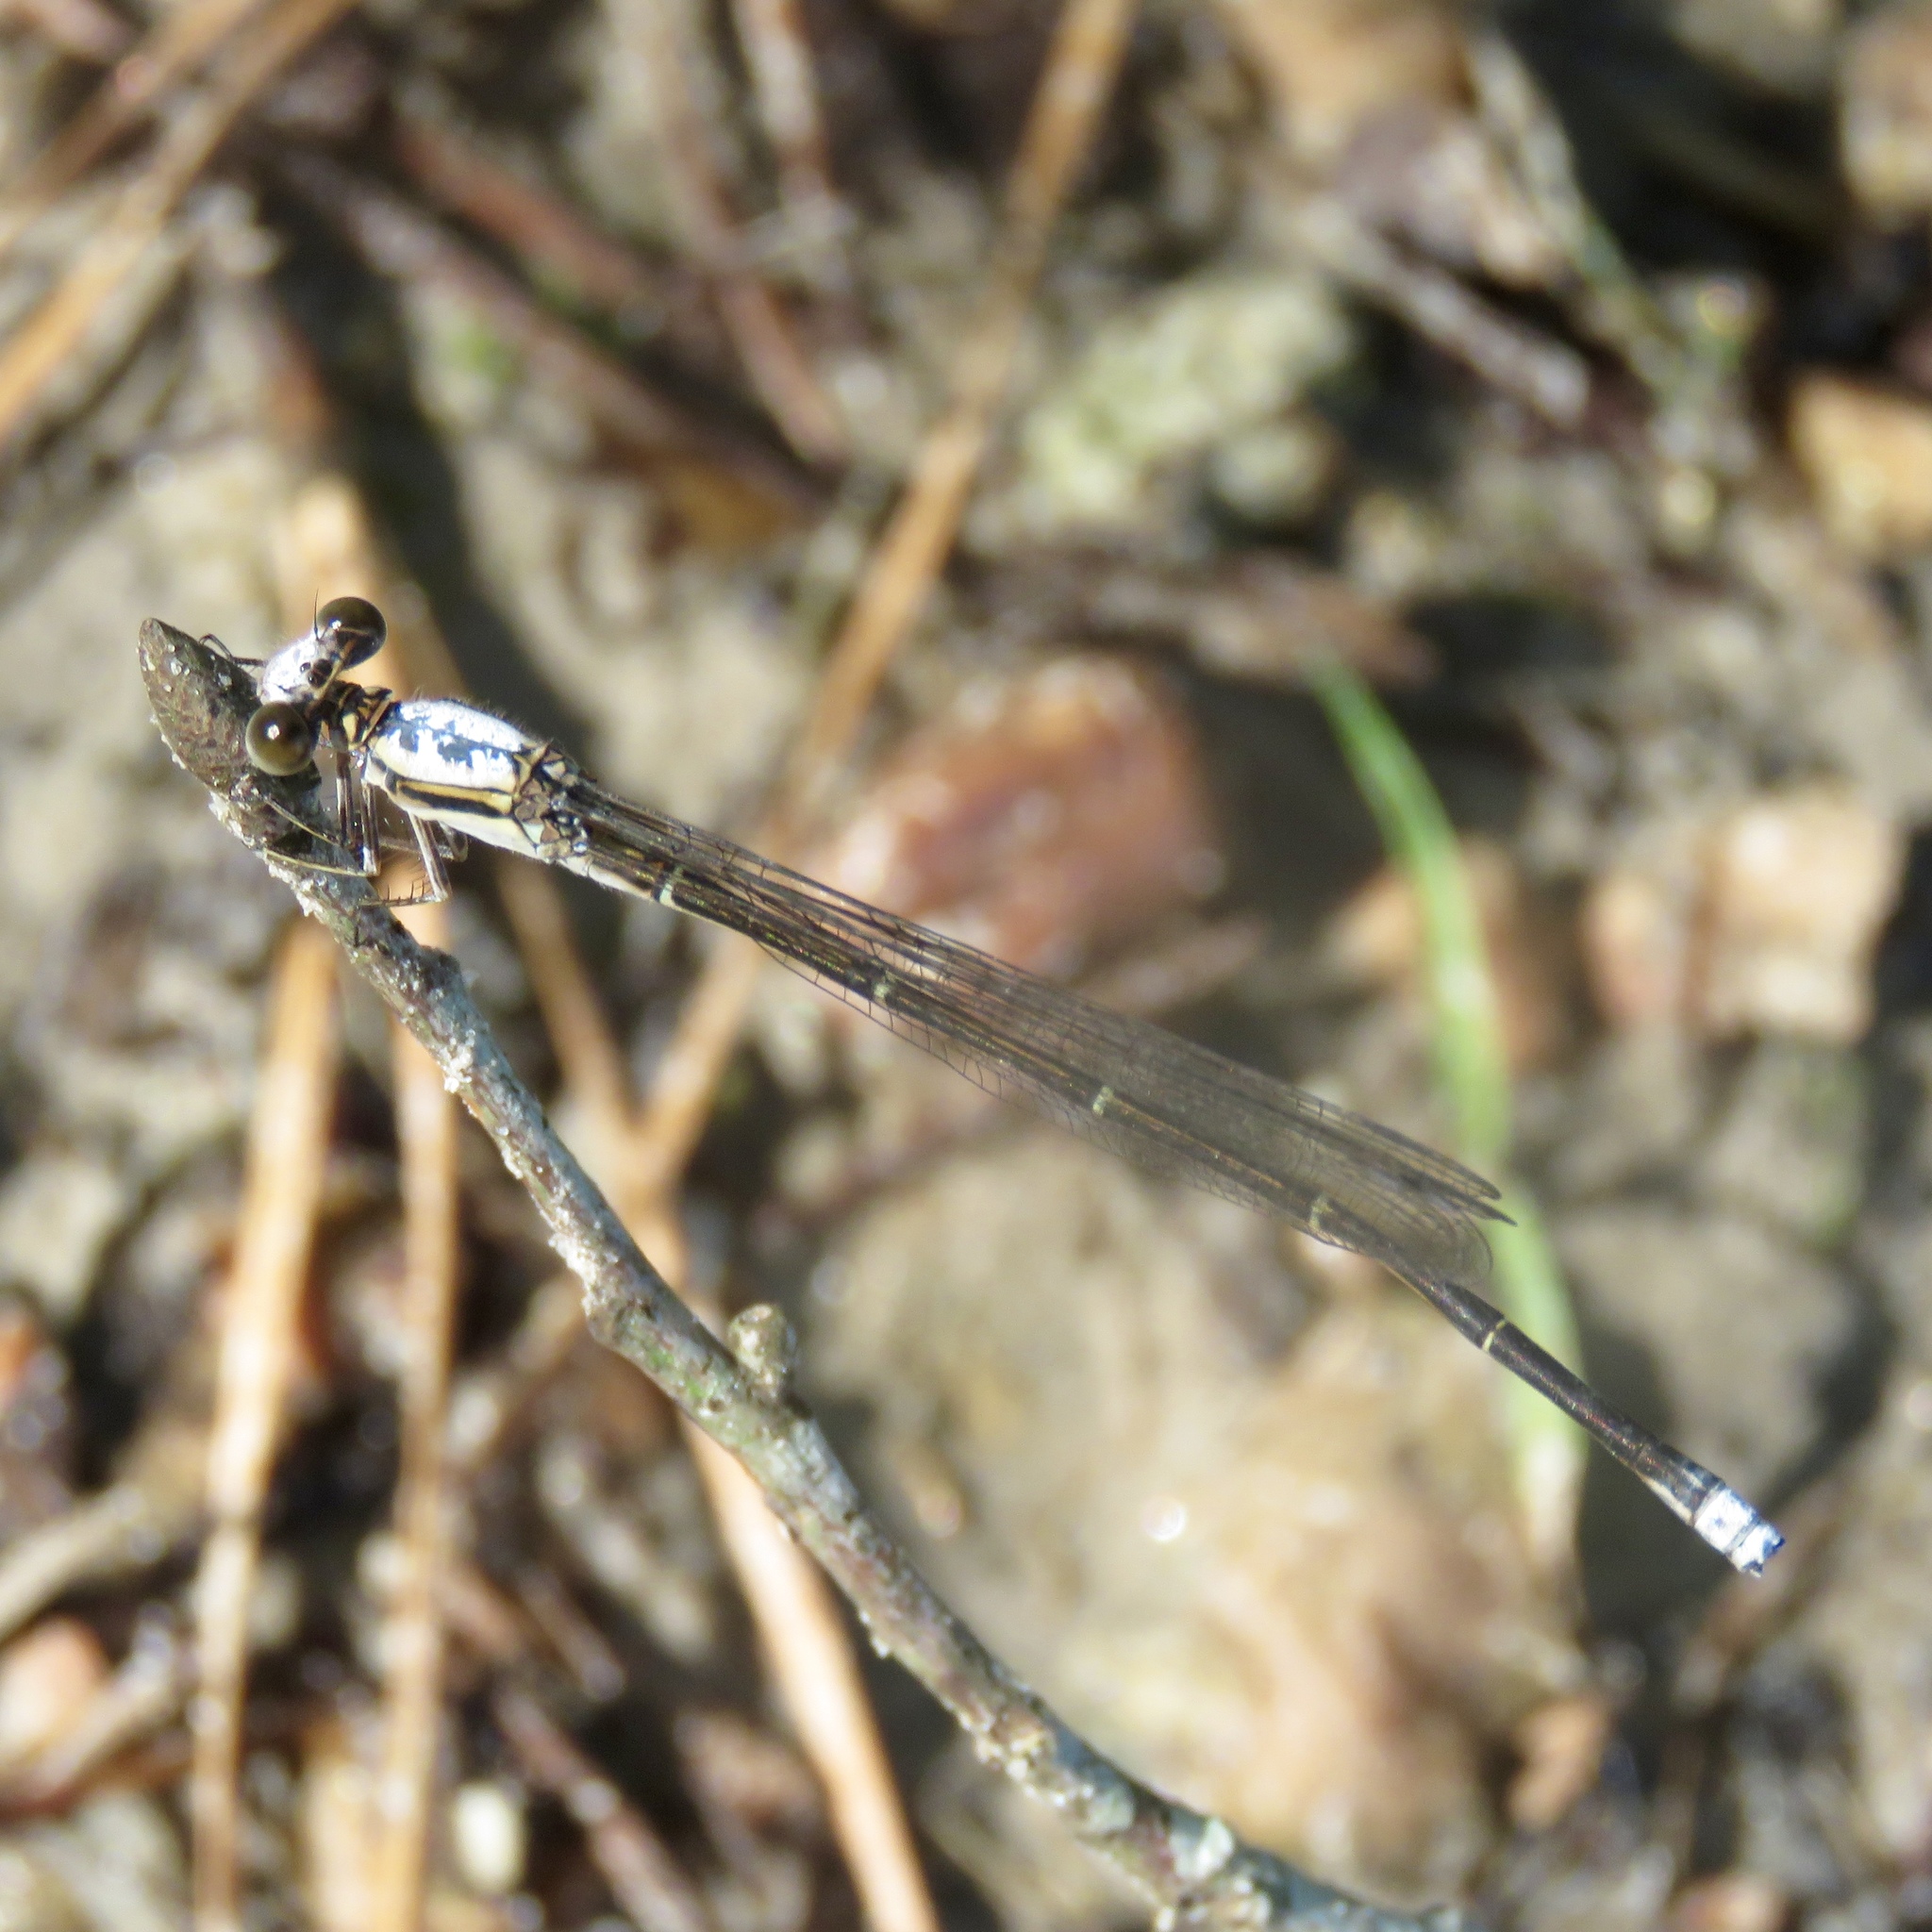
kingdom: Animalia
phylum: Arthropoda
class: Insecta
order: Odonata
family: Coenagrionidae
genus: Argia
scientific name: Argia moesta
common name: Powdered dancer
